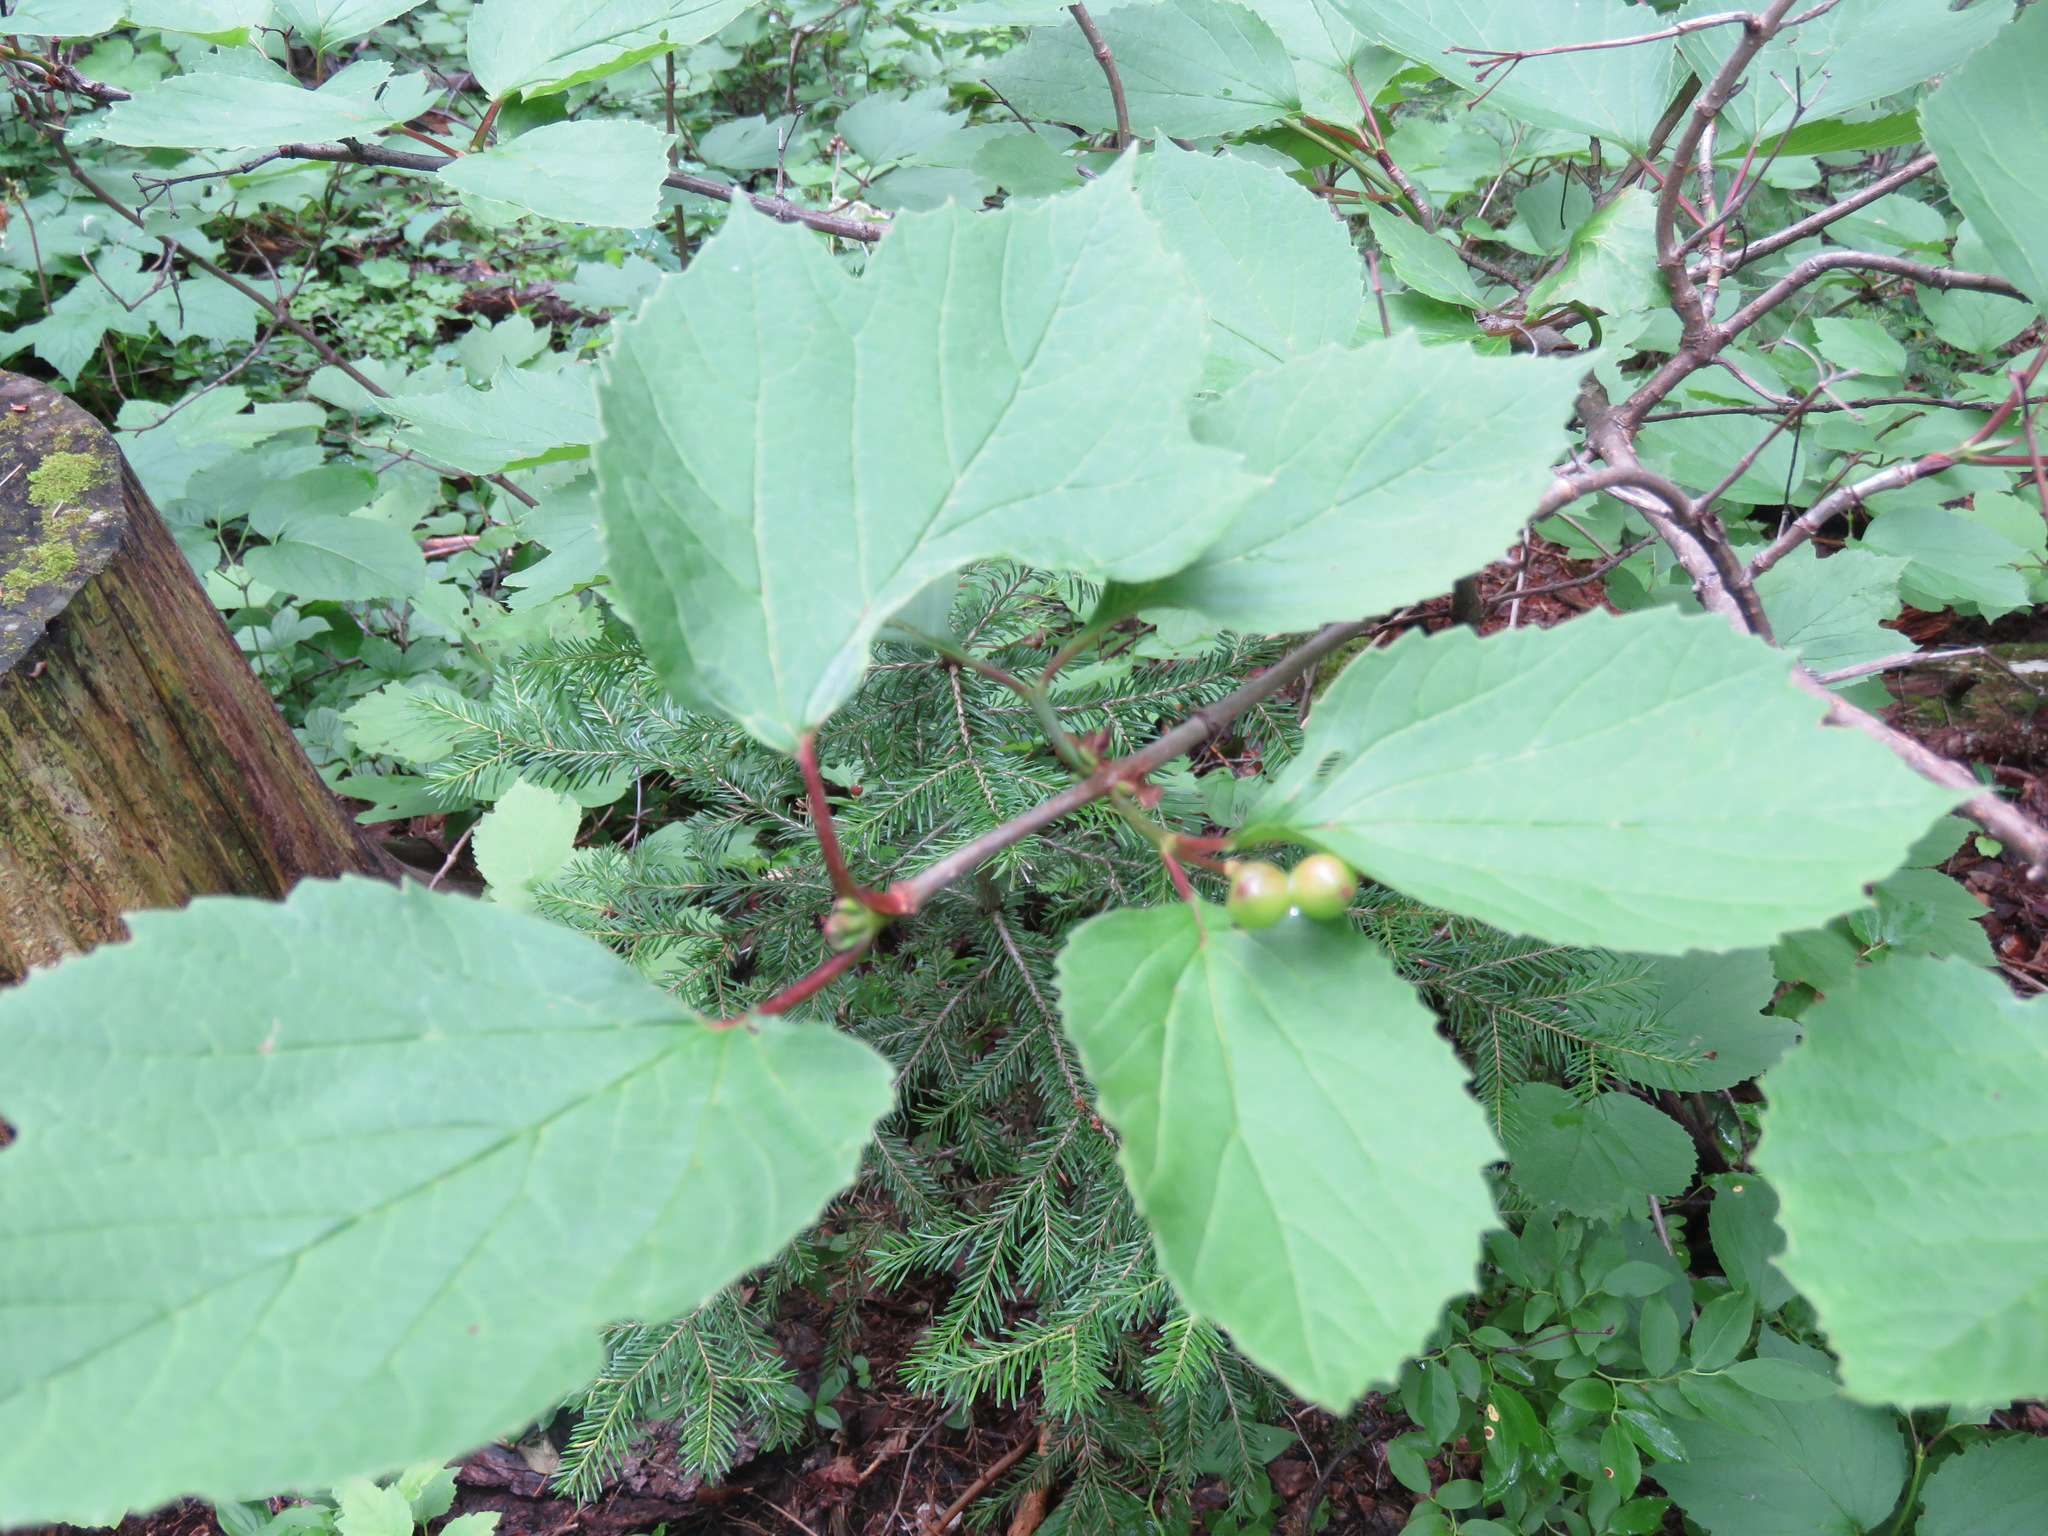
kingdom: Plantae
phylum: Tracheophyta
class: Magnoliopsida
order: Dipsacales
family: Viburnaceae
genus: Viburnum
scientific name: Viburnum edule
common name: Mooseberry
